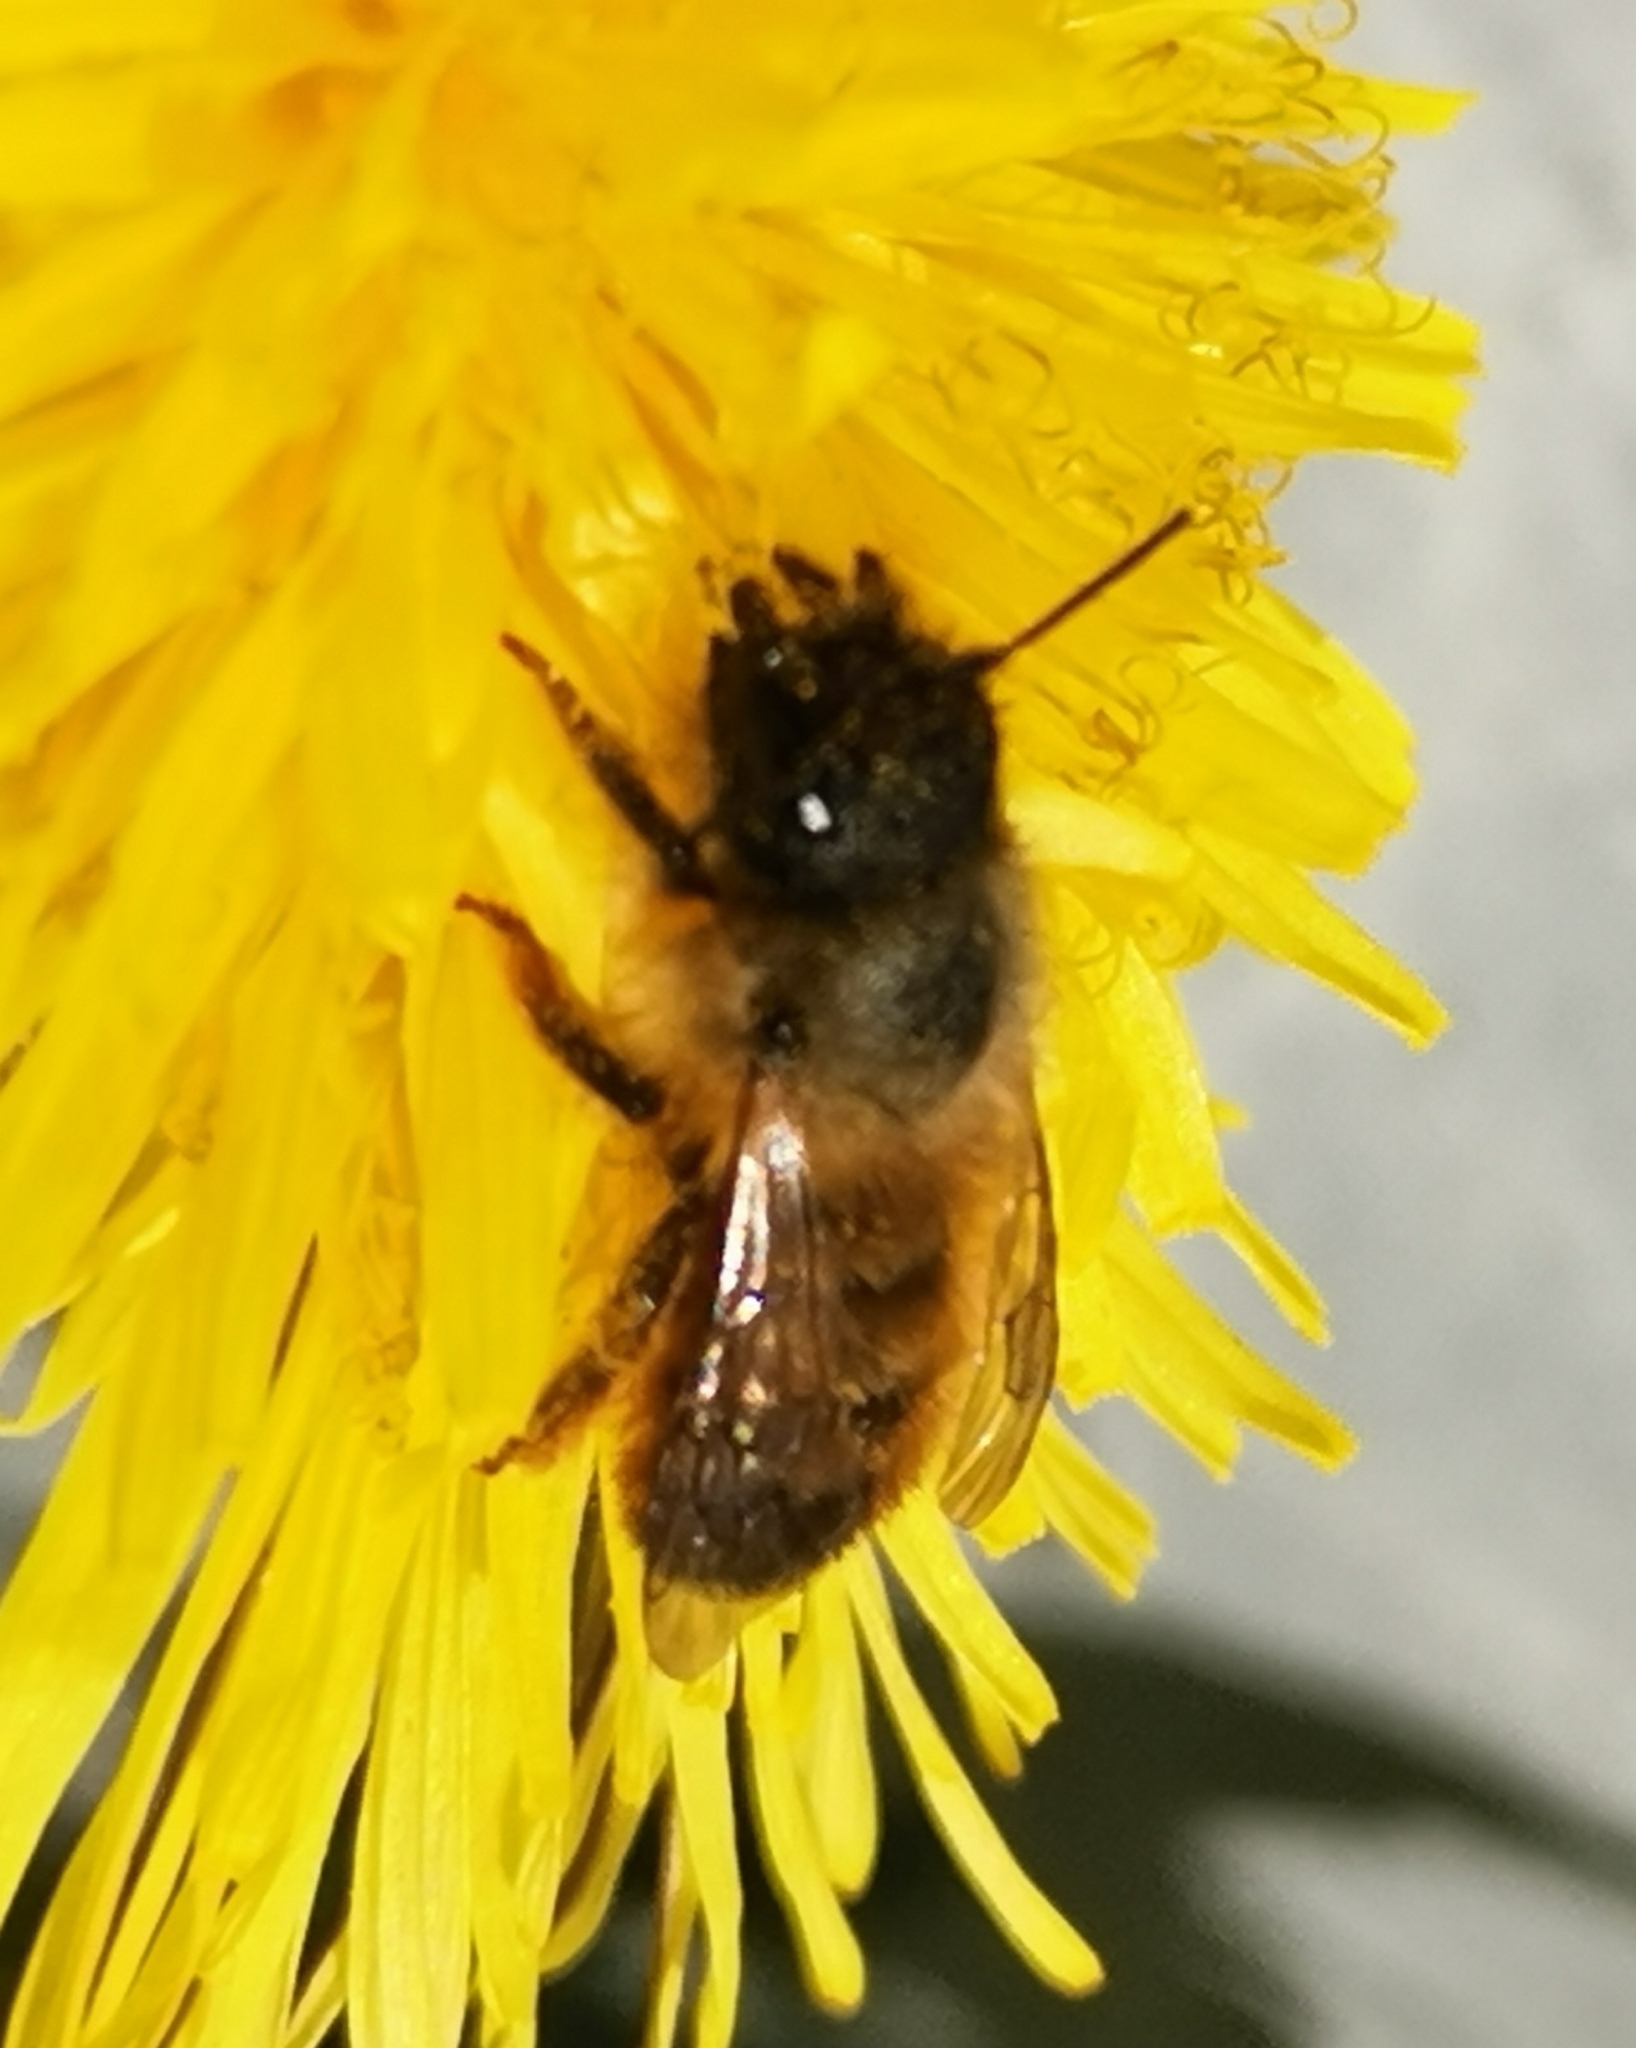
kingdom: Animalia
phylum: Arthropoda
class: Insecta
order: Hymenoptera
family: Megachilidae
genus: Osmia
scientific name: Osmia bicornis
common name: Red mason bee
